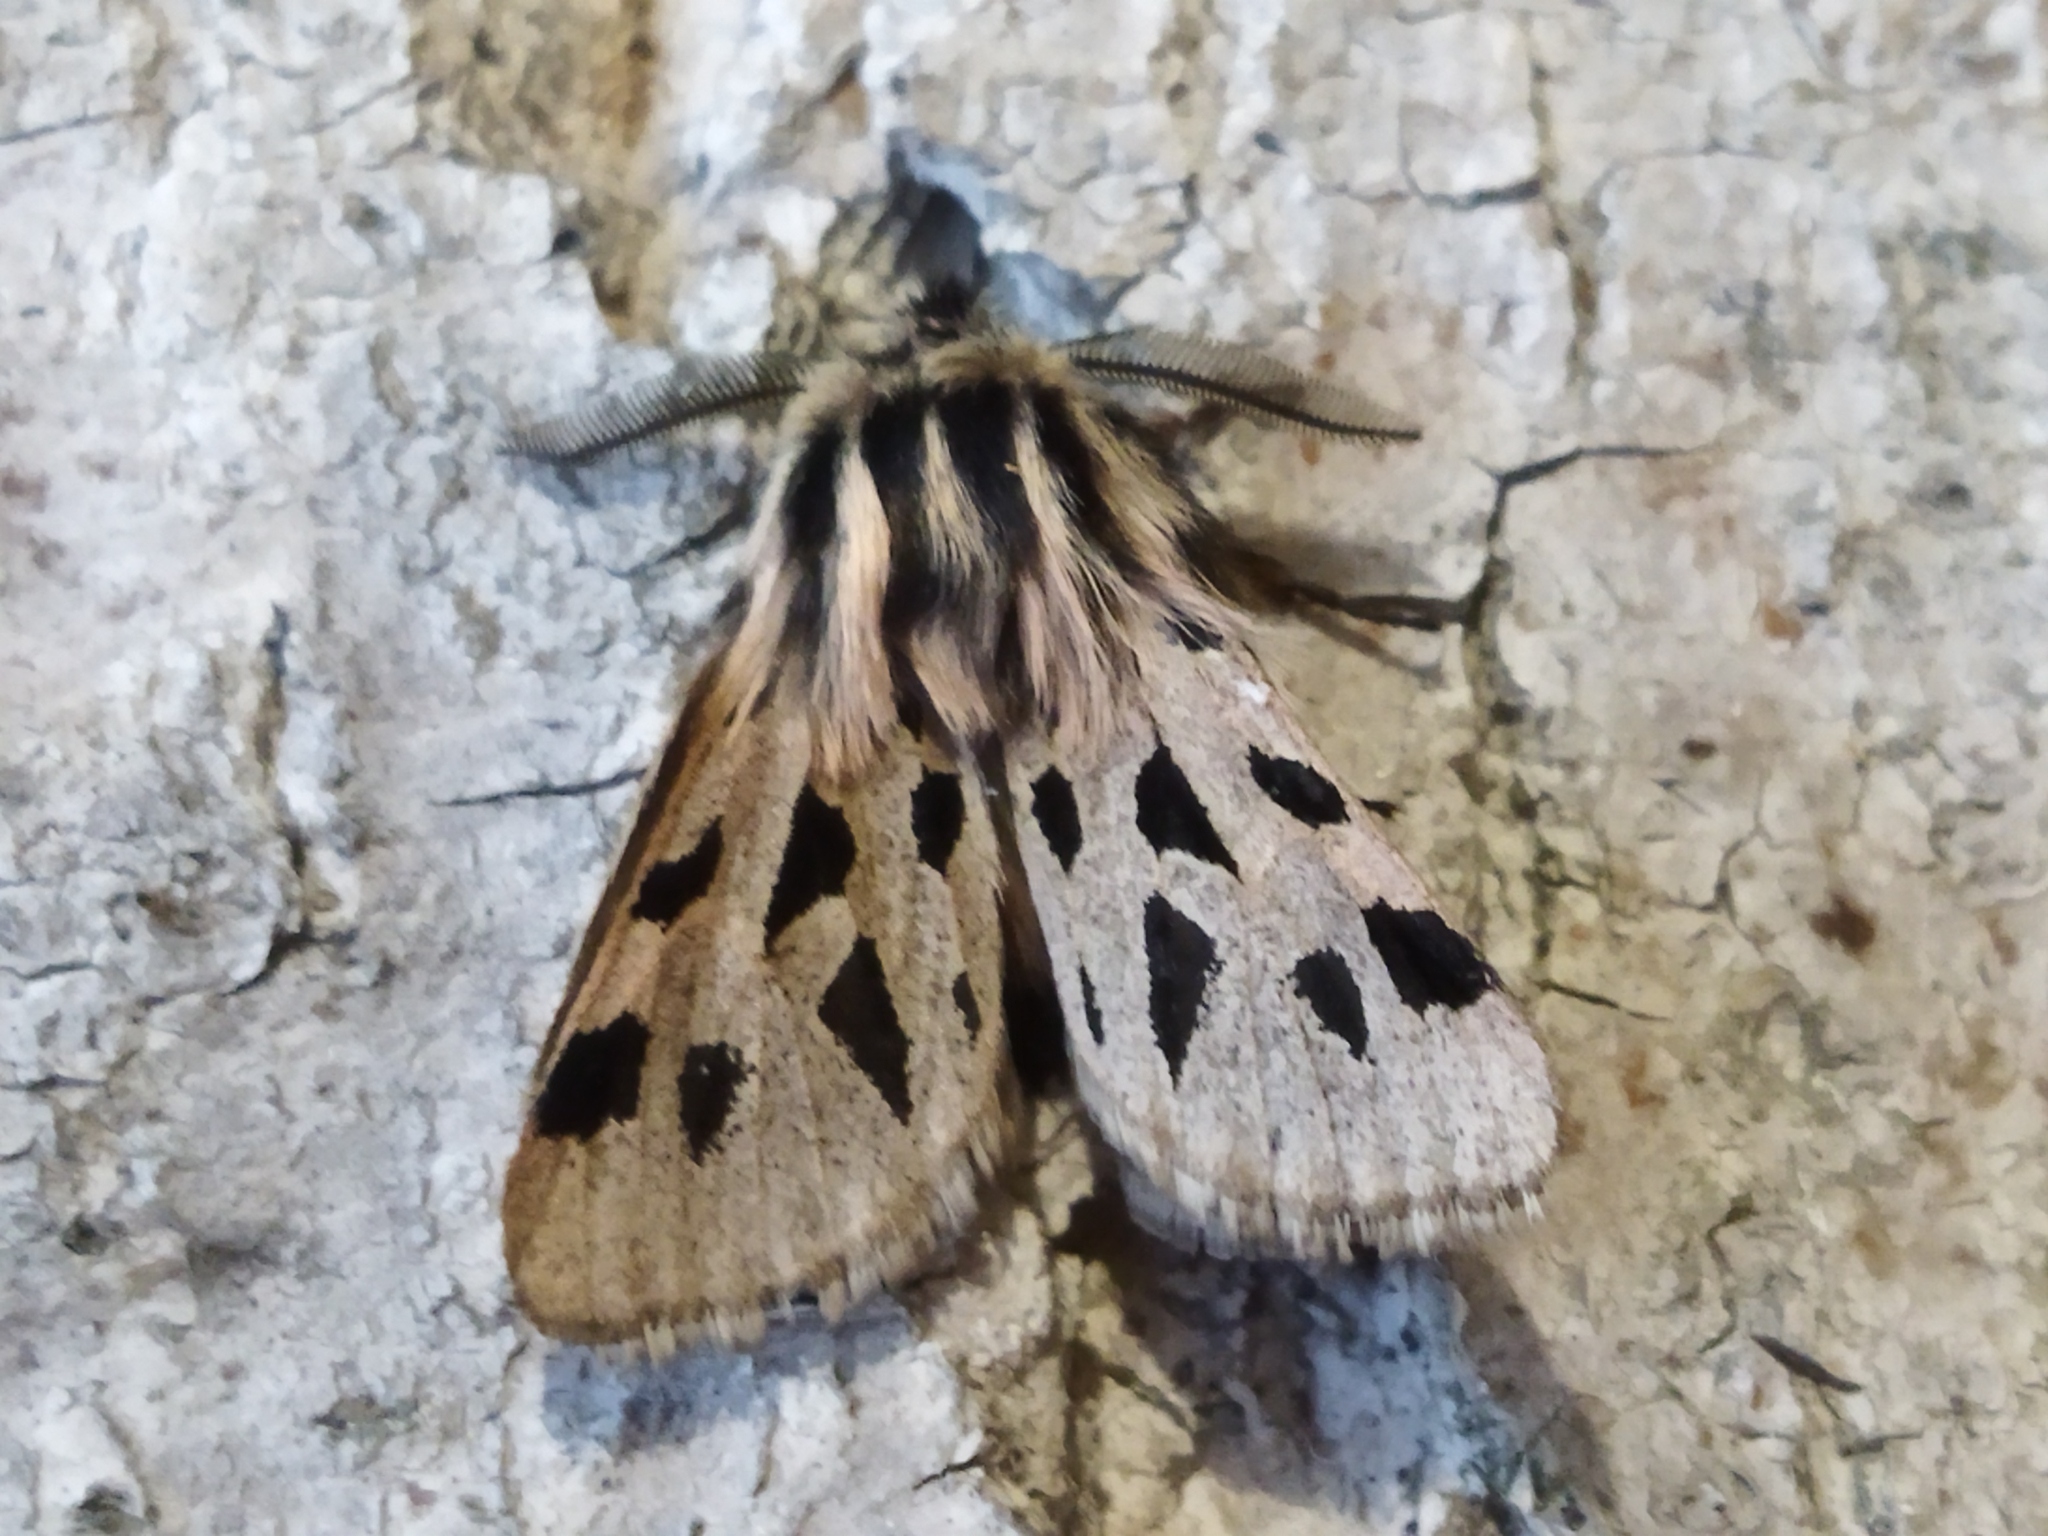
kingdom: Animalia
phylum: Arthropoda
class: Insecta
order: Lepidoptera
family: Erebidae
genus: Ocnogyna
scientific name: Ocnogyna parasita
